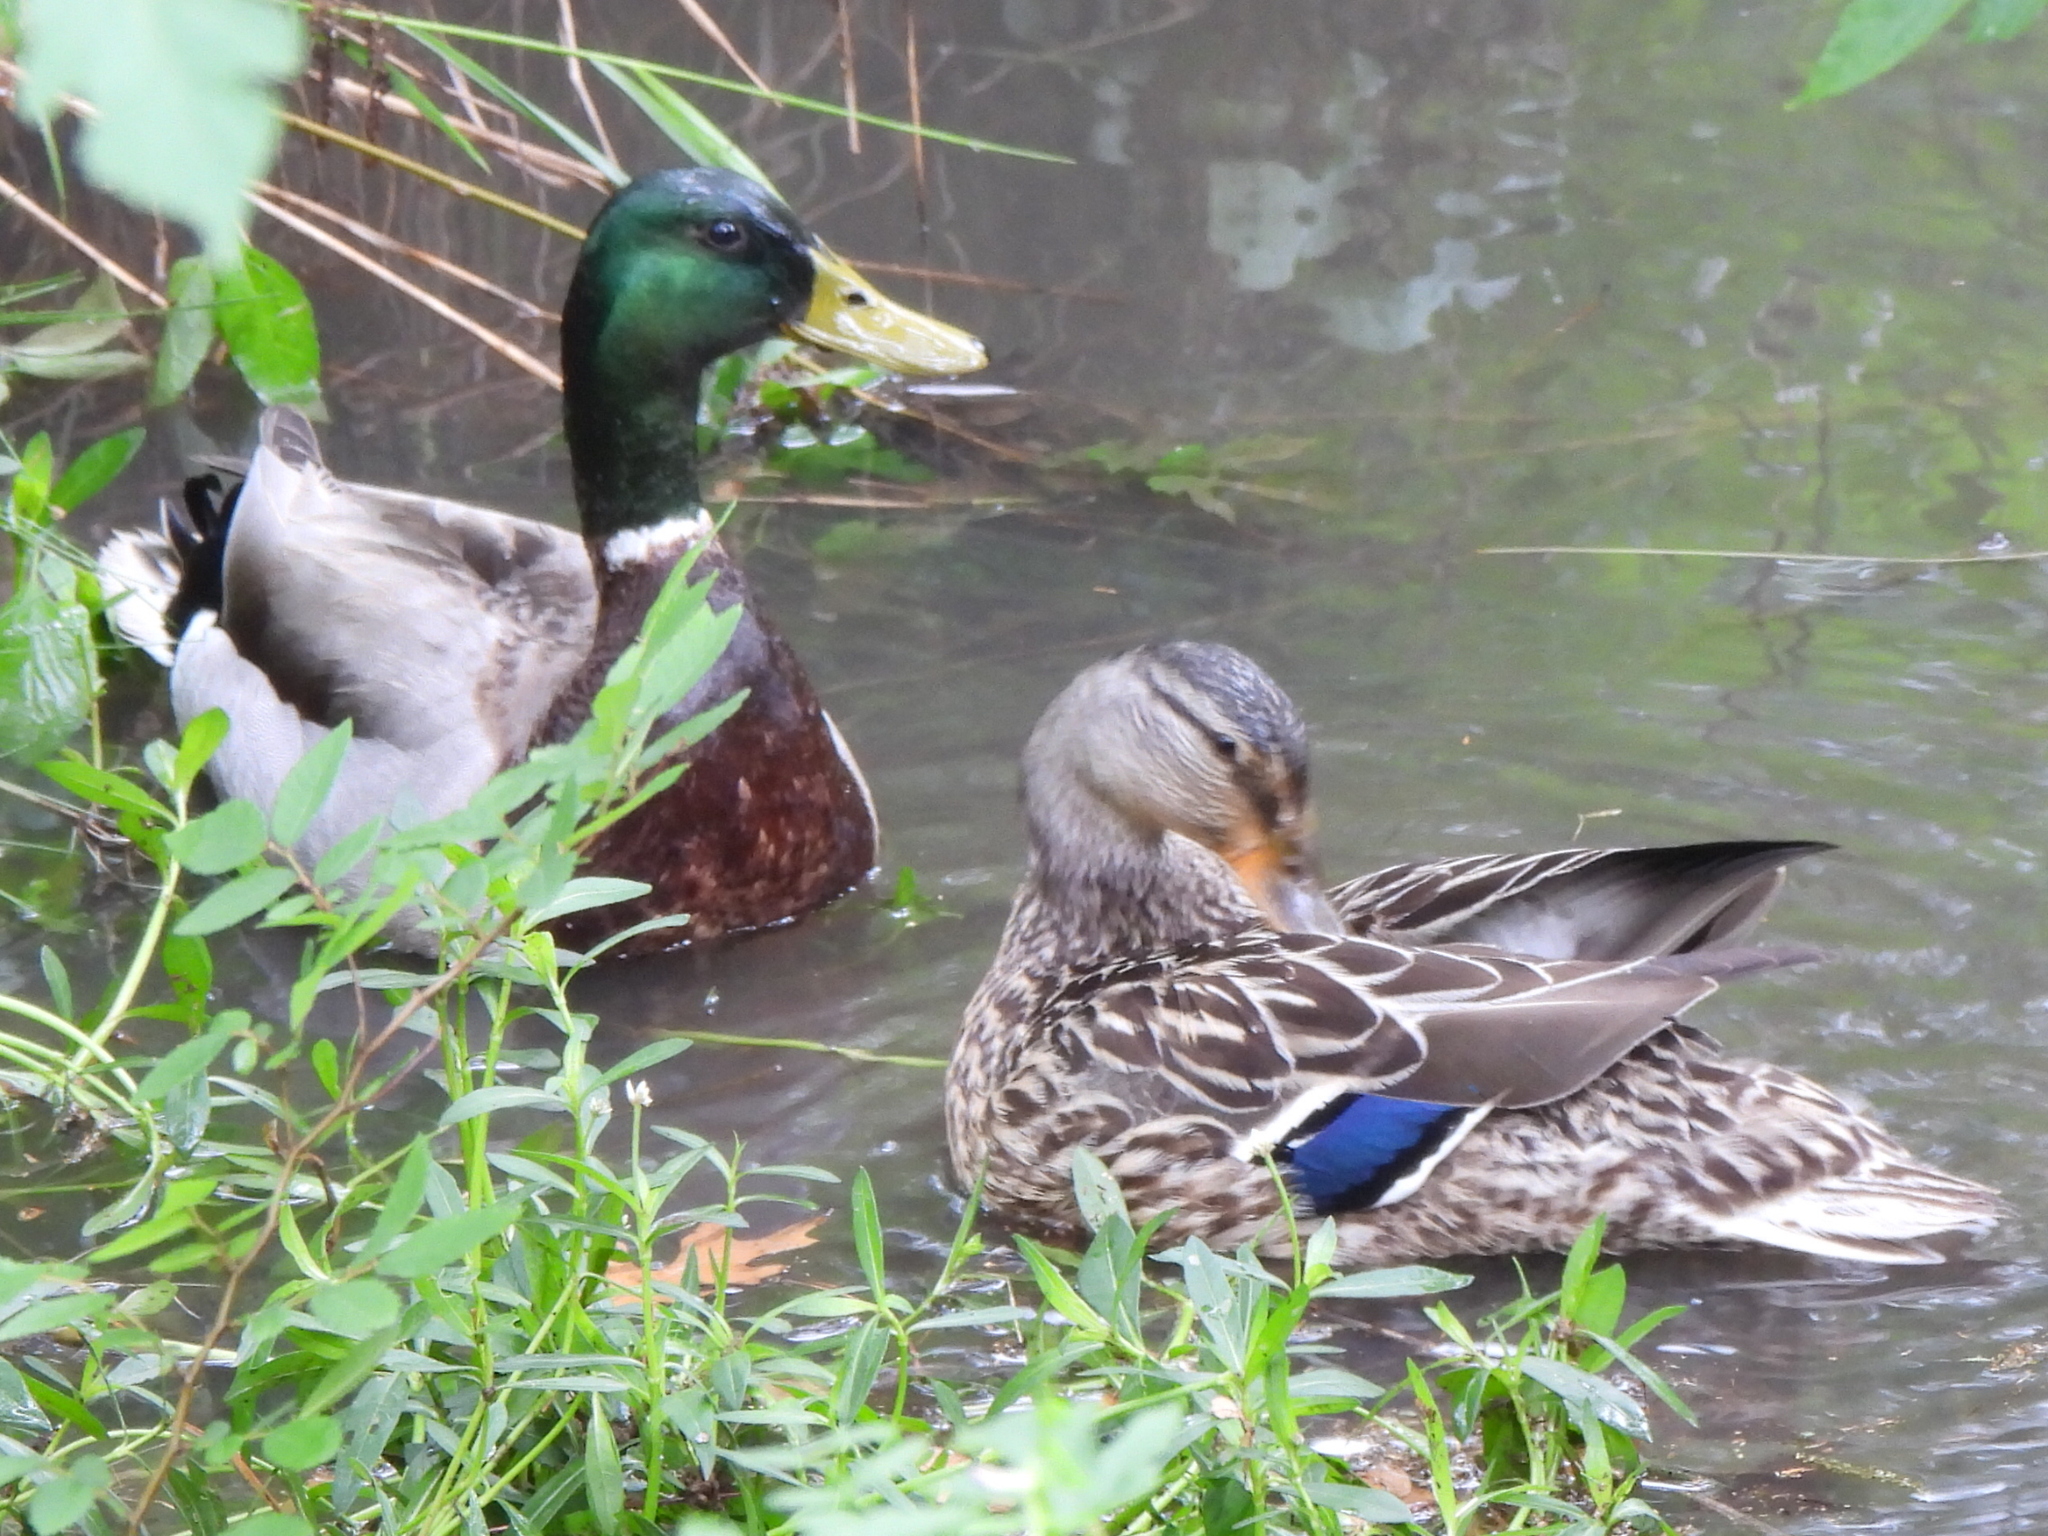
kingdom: Animalia
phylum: Chordata
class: Aves
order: Anseriformes
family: Anatidae
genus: Anas
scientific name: Anas platyrhynchos
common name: Mallard
